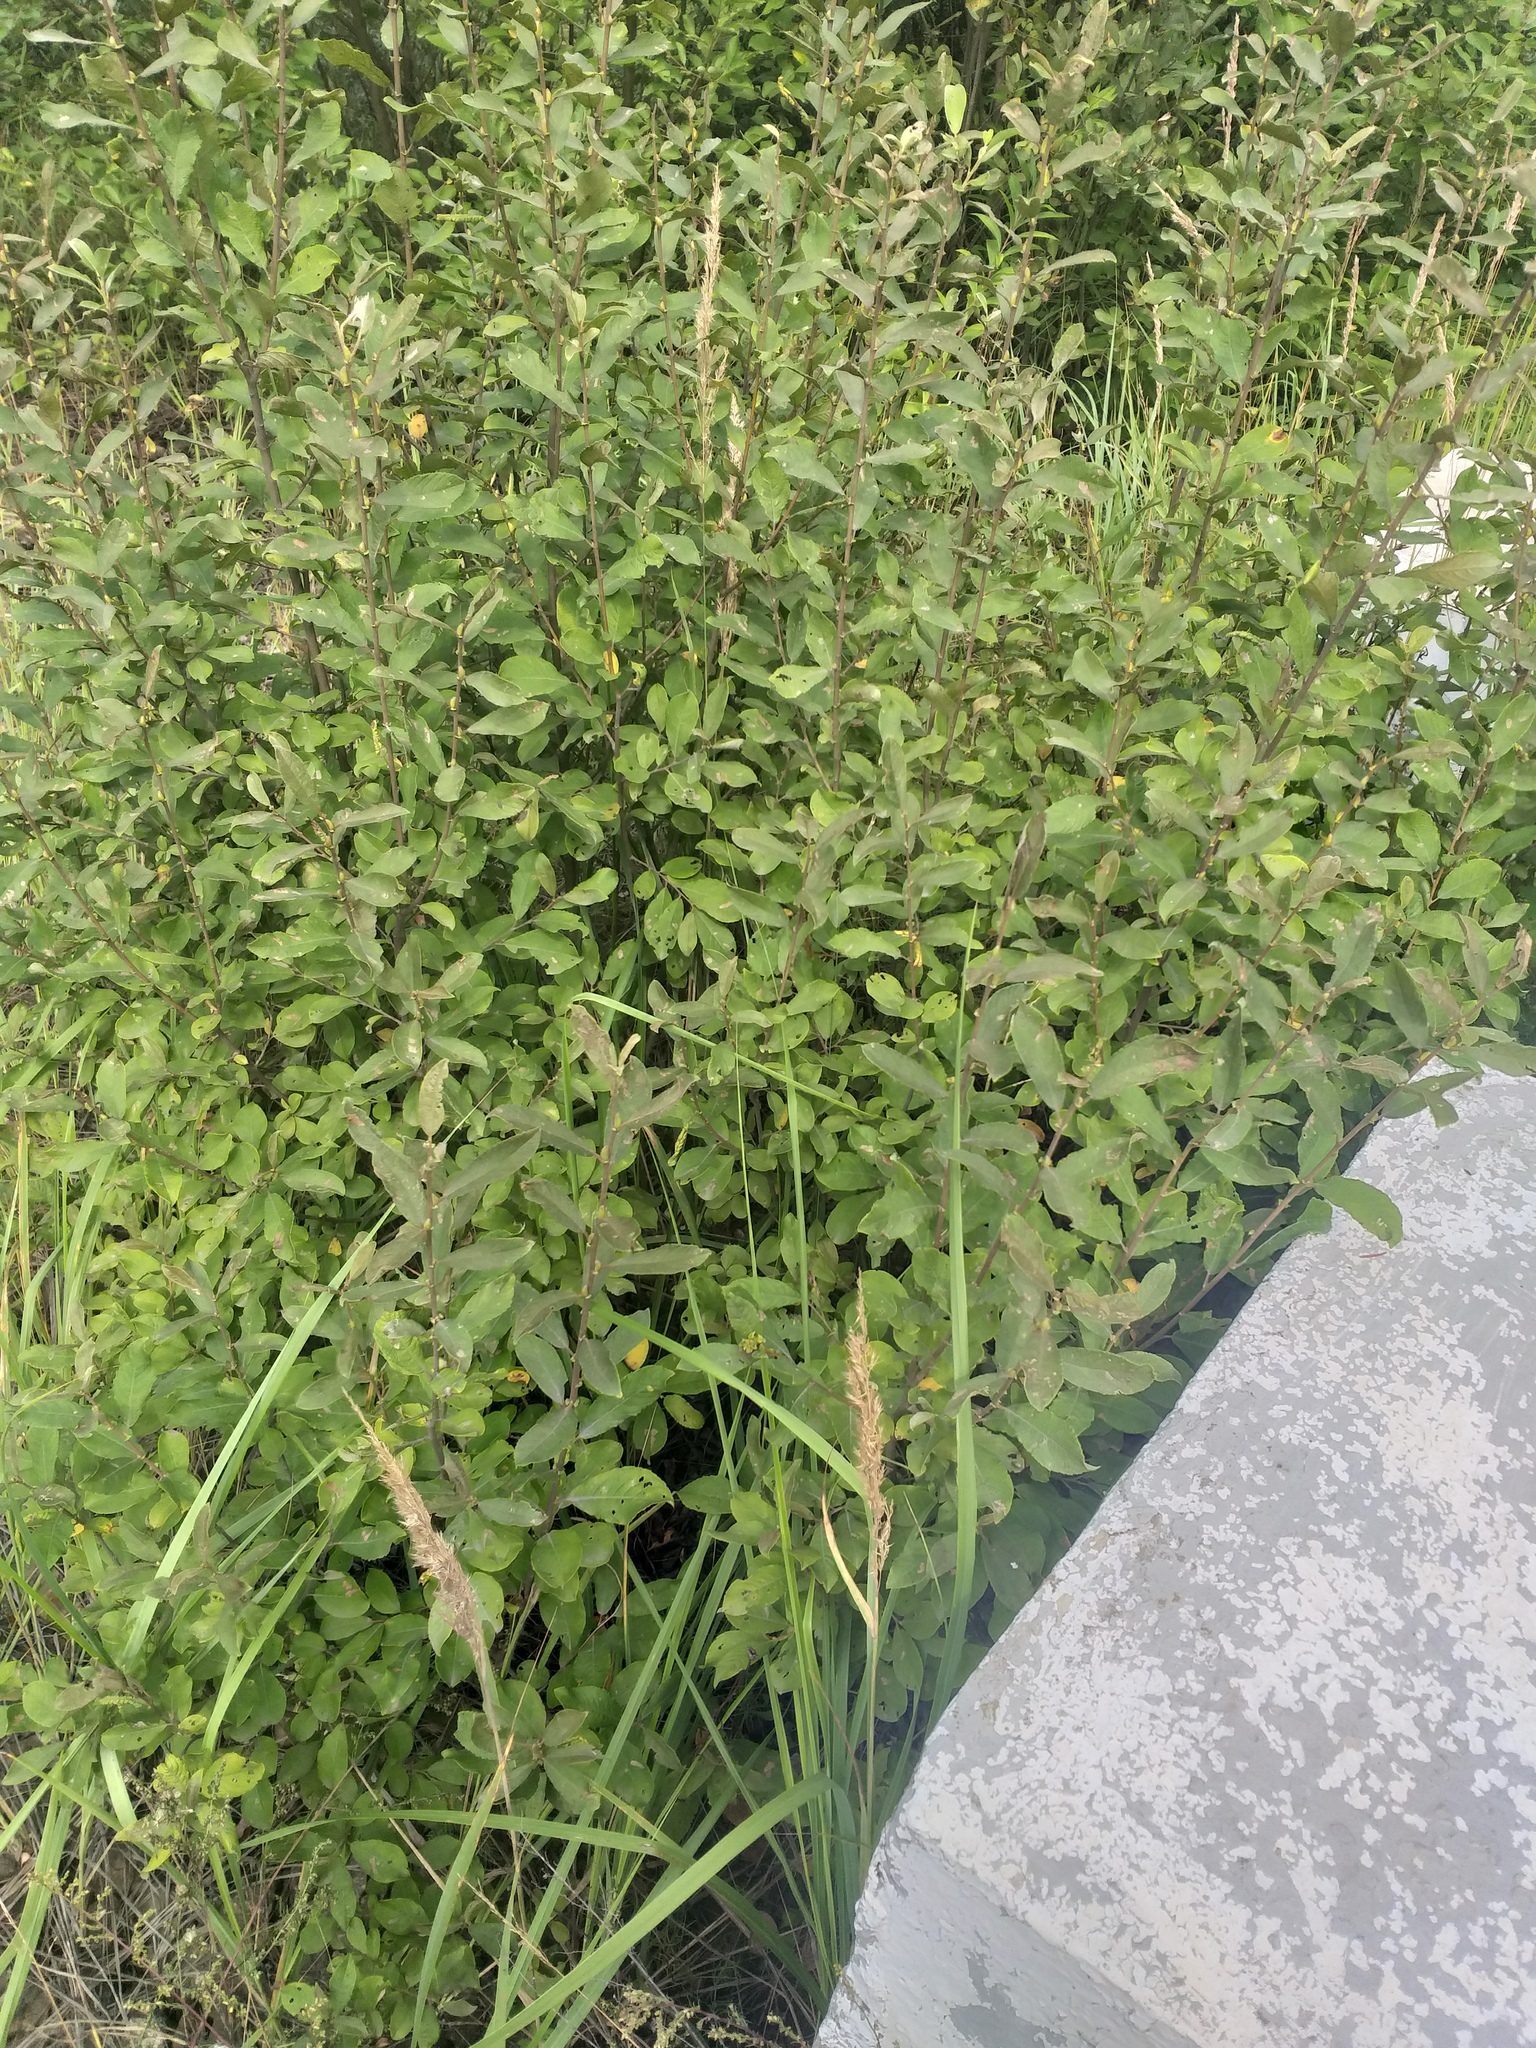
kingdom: Plantae
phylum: Tracheophyta
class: Magnoliopsida
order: Malpighiales
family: Salicaceae
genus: Salix
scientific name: Salix cinerea
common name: Common sallow
